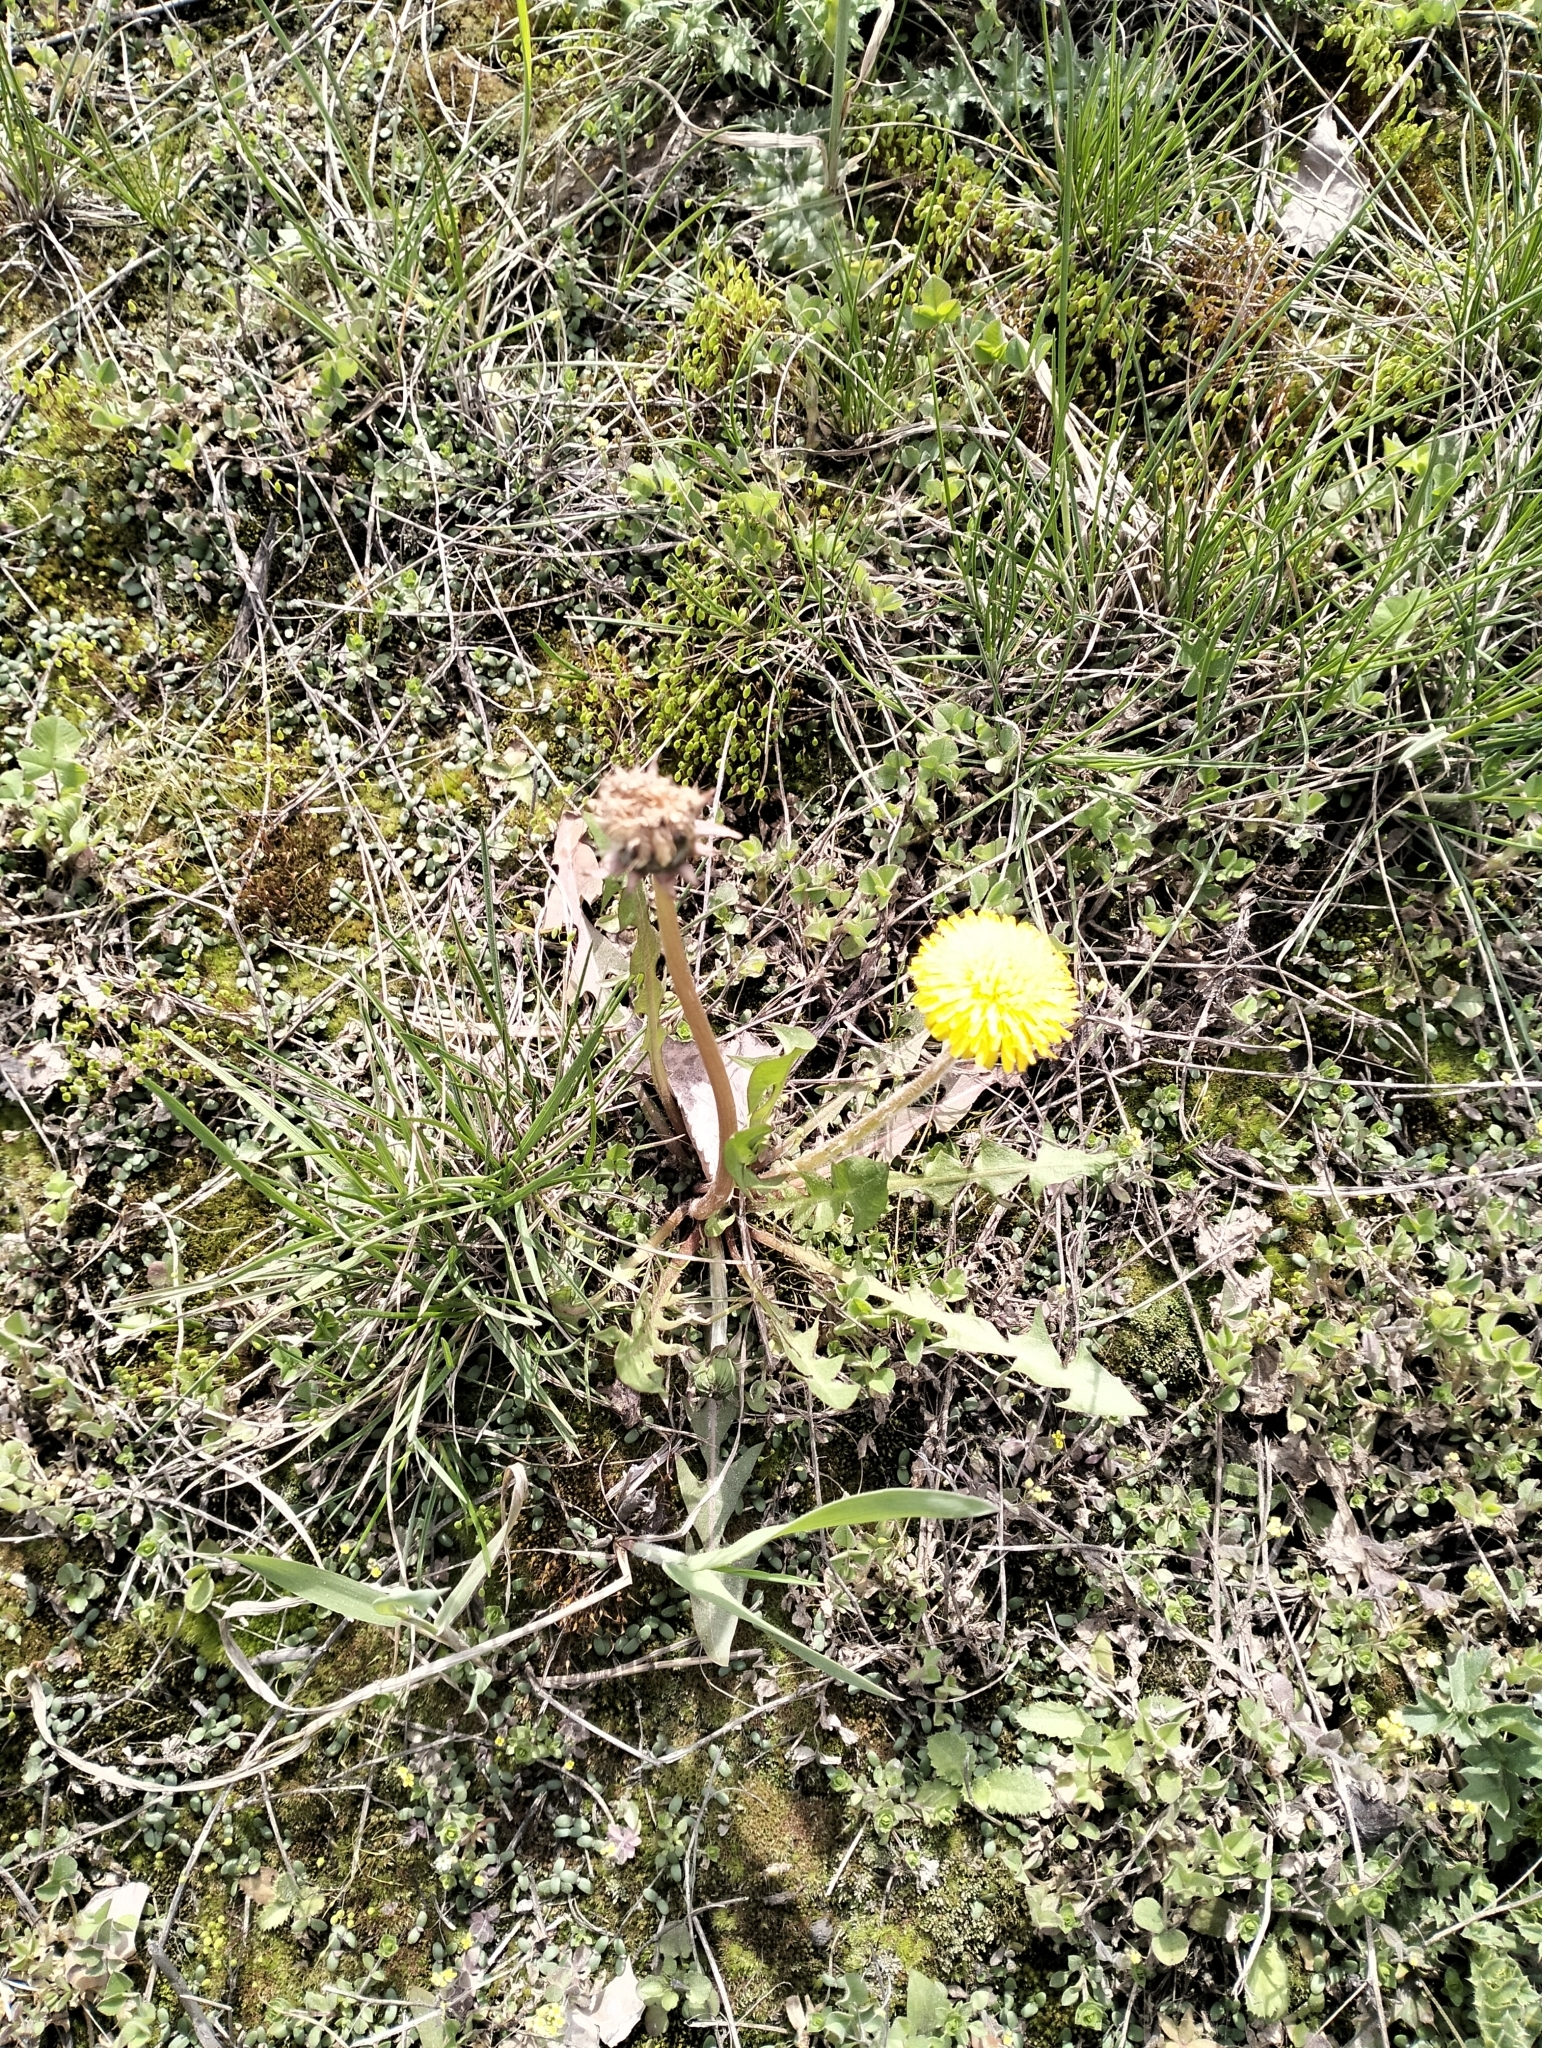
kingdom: Plantae
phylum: Tracheophyta
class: Magnoliopsida
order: Asterales
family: Asteraceae
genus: Taraxacum
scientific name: Taraxacum officinale
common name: Common dandelion
